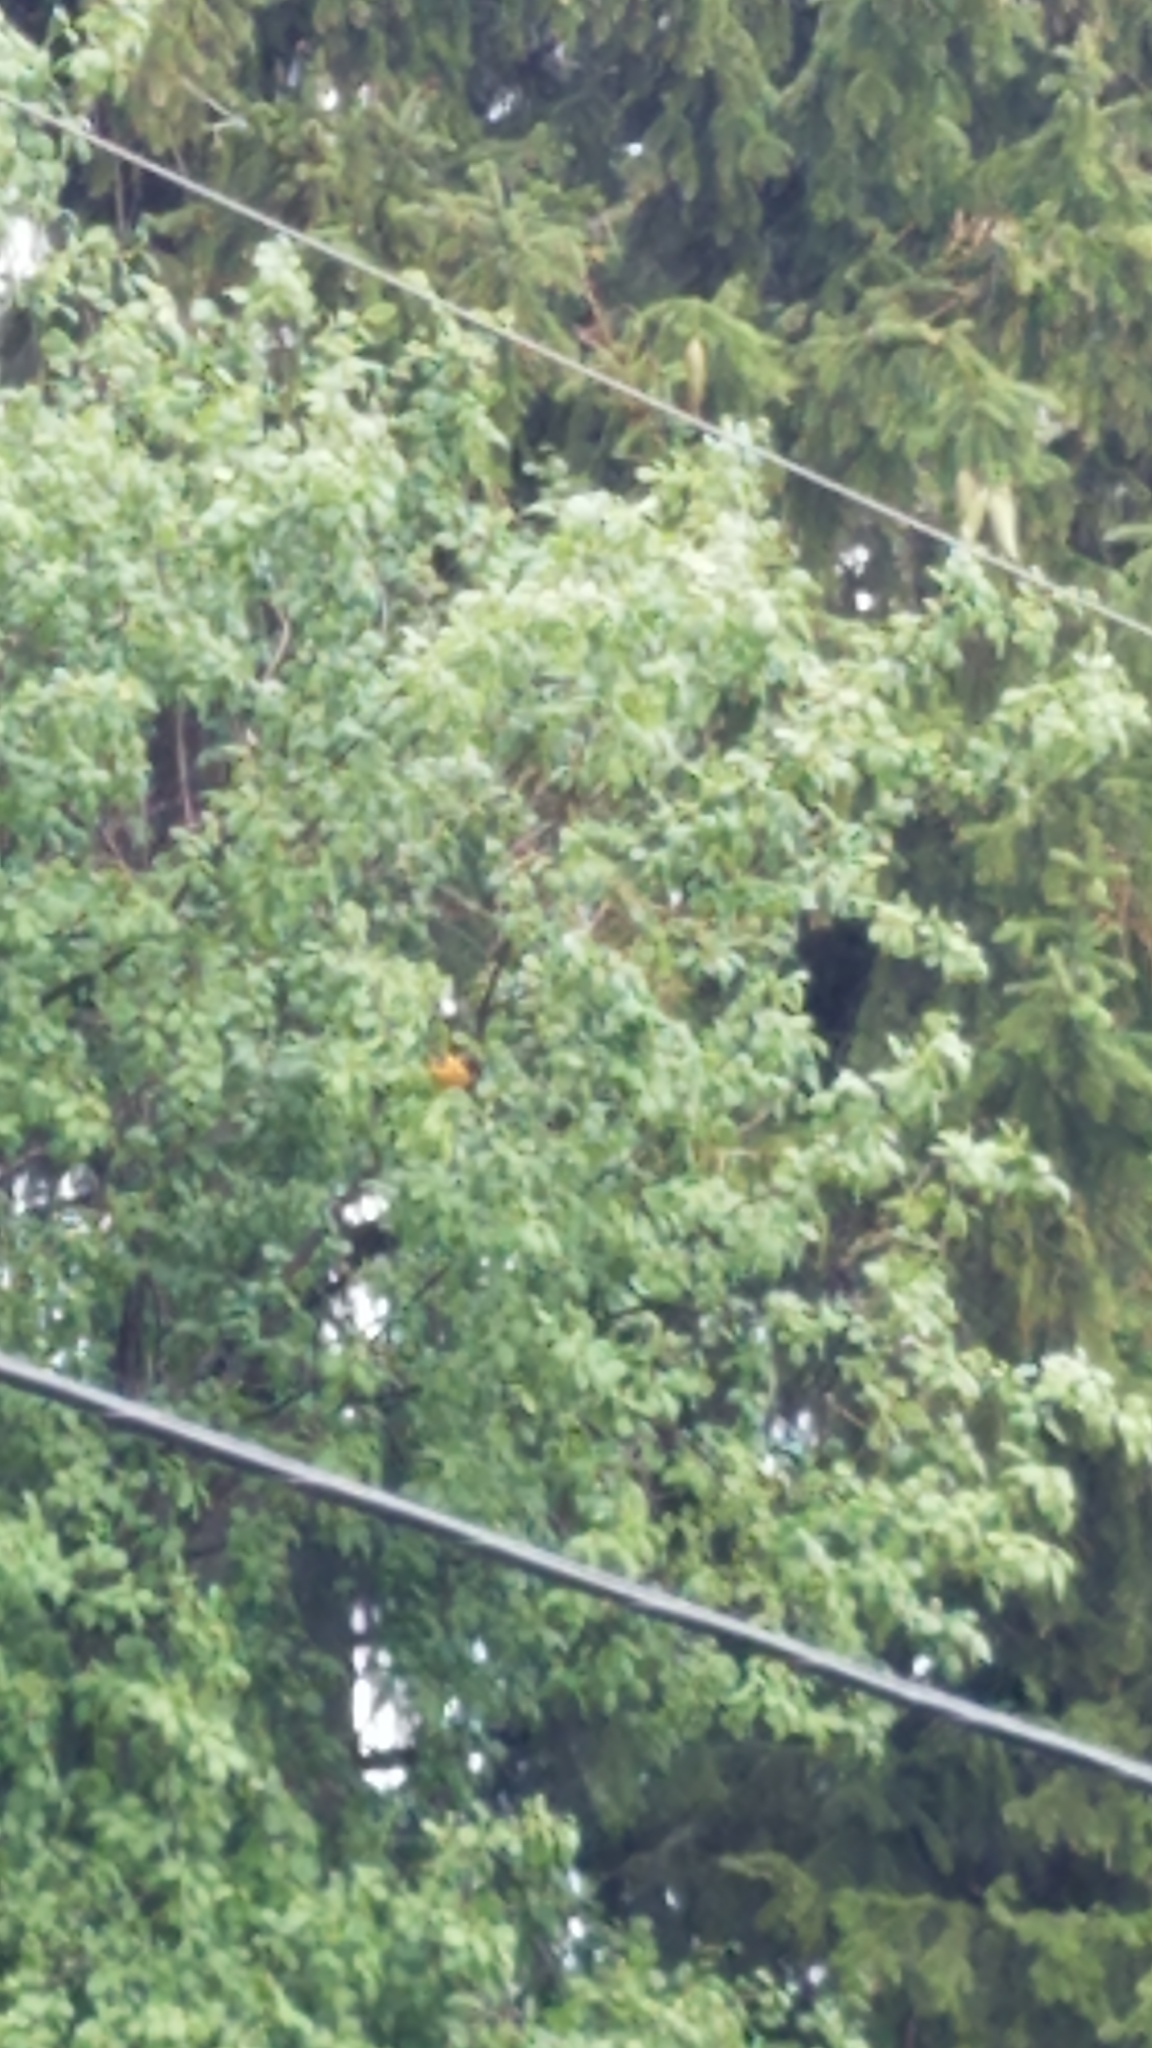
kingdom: Animalia
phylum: Chordata
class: Aves
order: Passeriformes
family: Icteridae
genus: Icterus
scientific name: Icterus galbula
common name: Baltimore oriole
